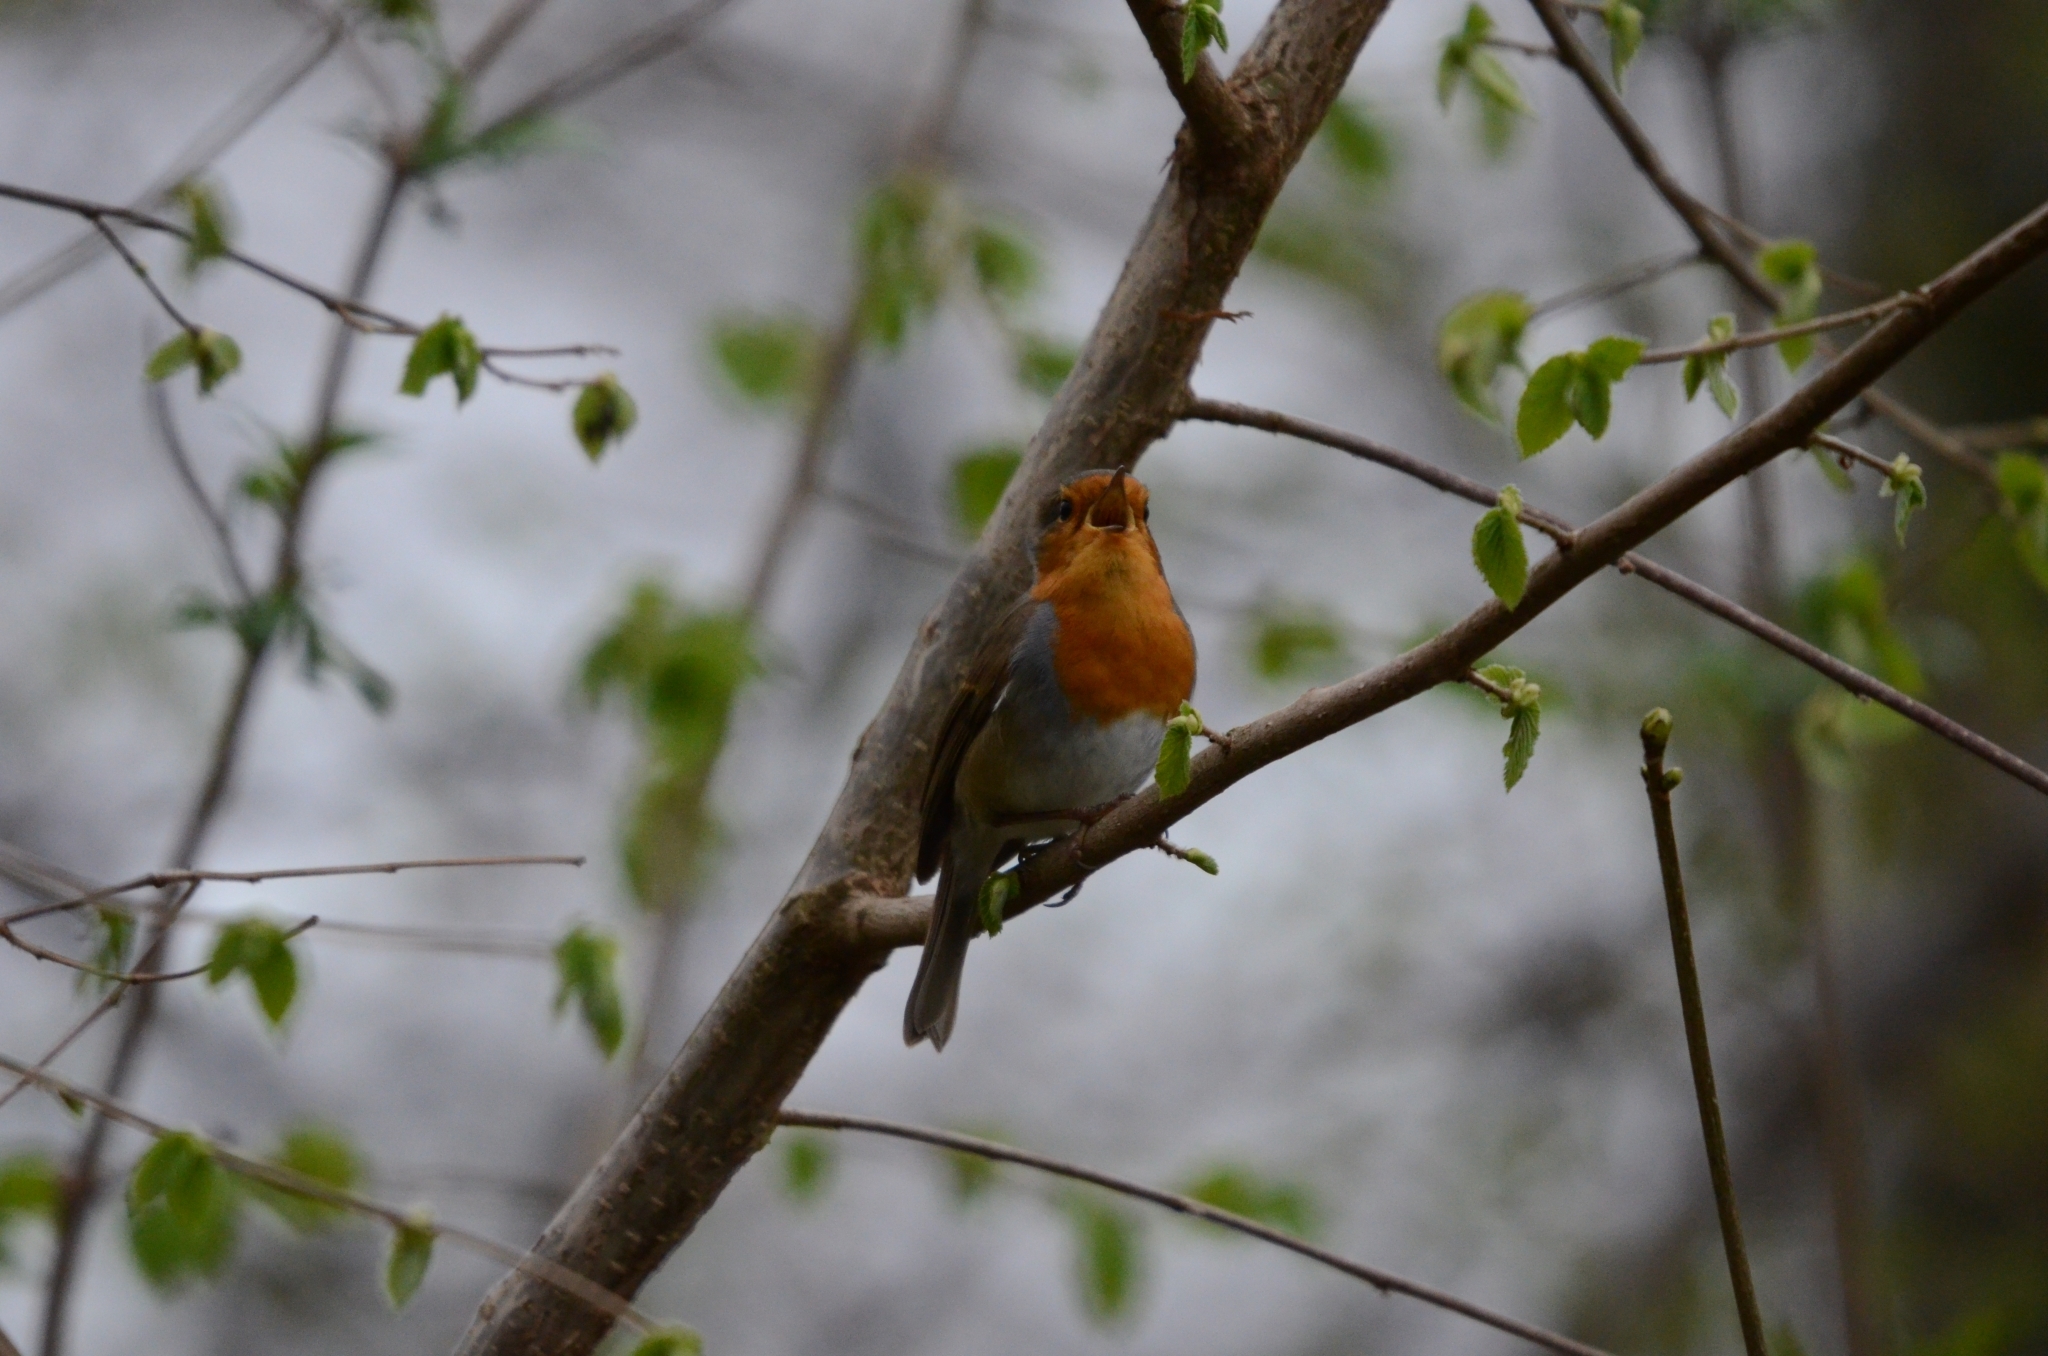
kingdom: Animalia
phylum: Chordata
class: Aves
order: Passeriformes
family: Muscicapidae
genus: Erithacus
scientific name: Erithacus rubecula
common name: European robin
